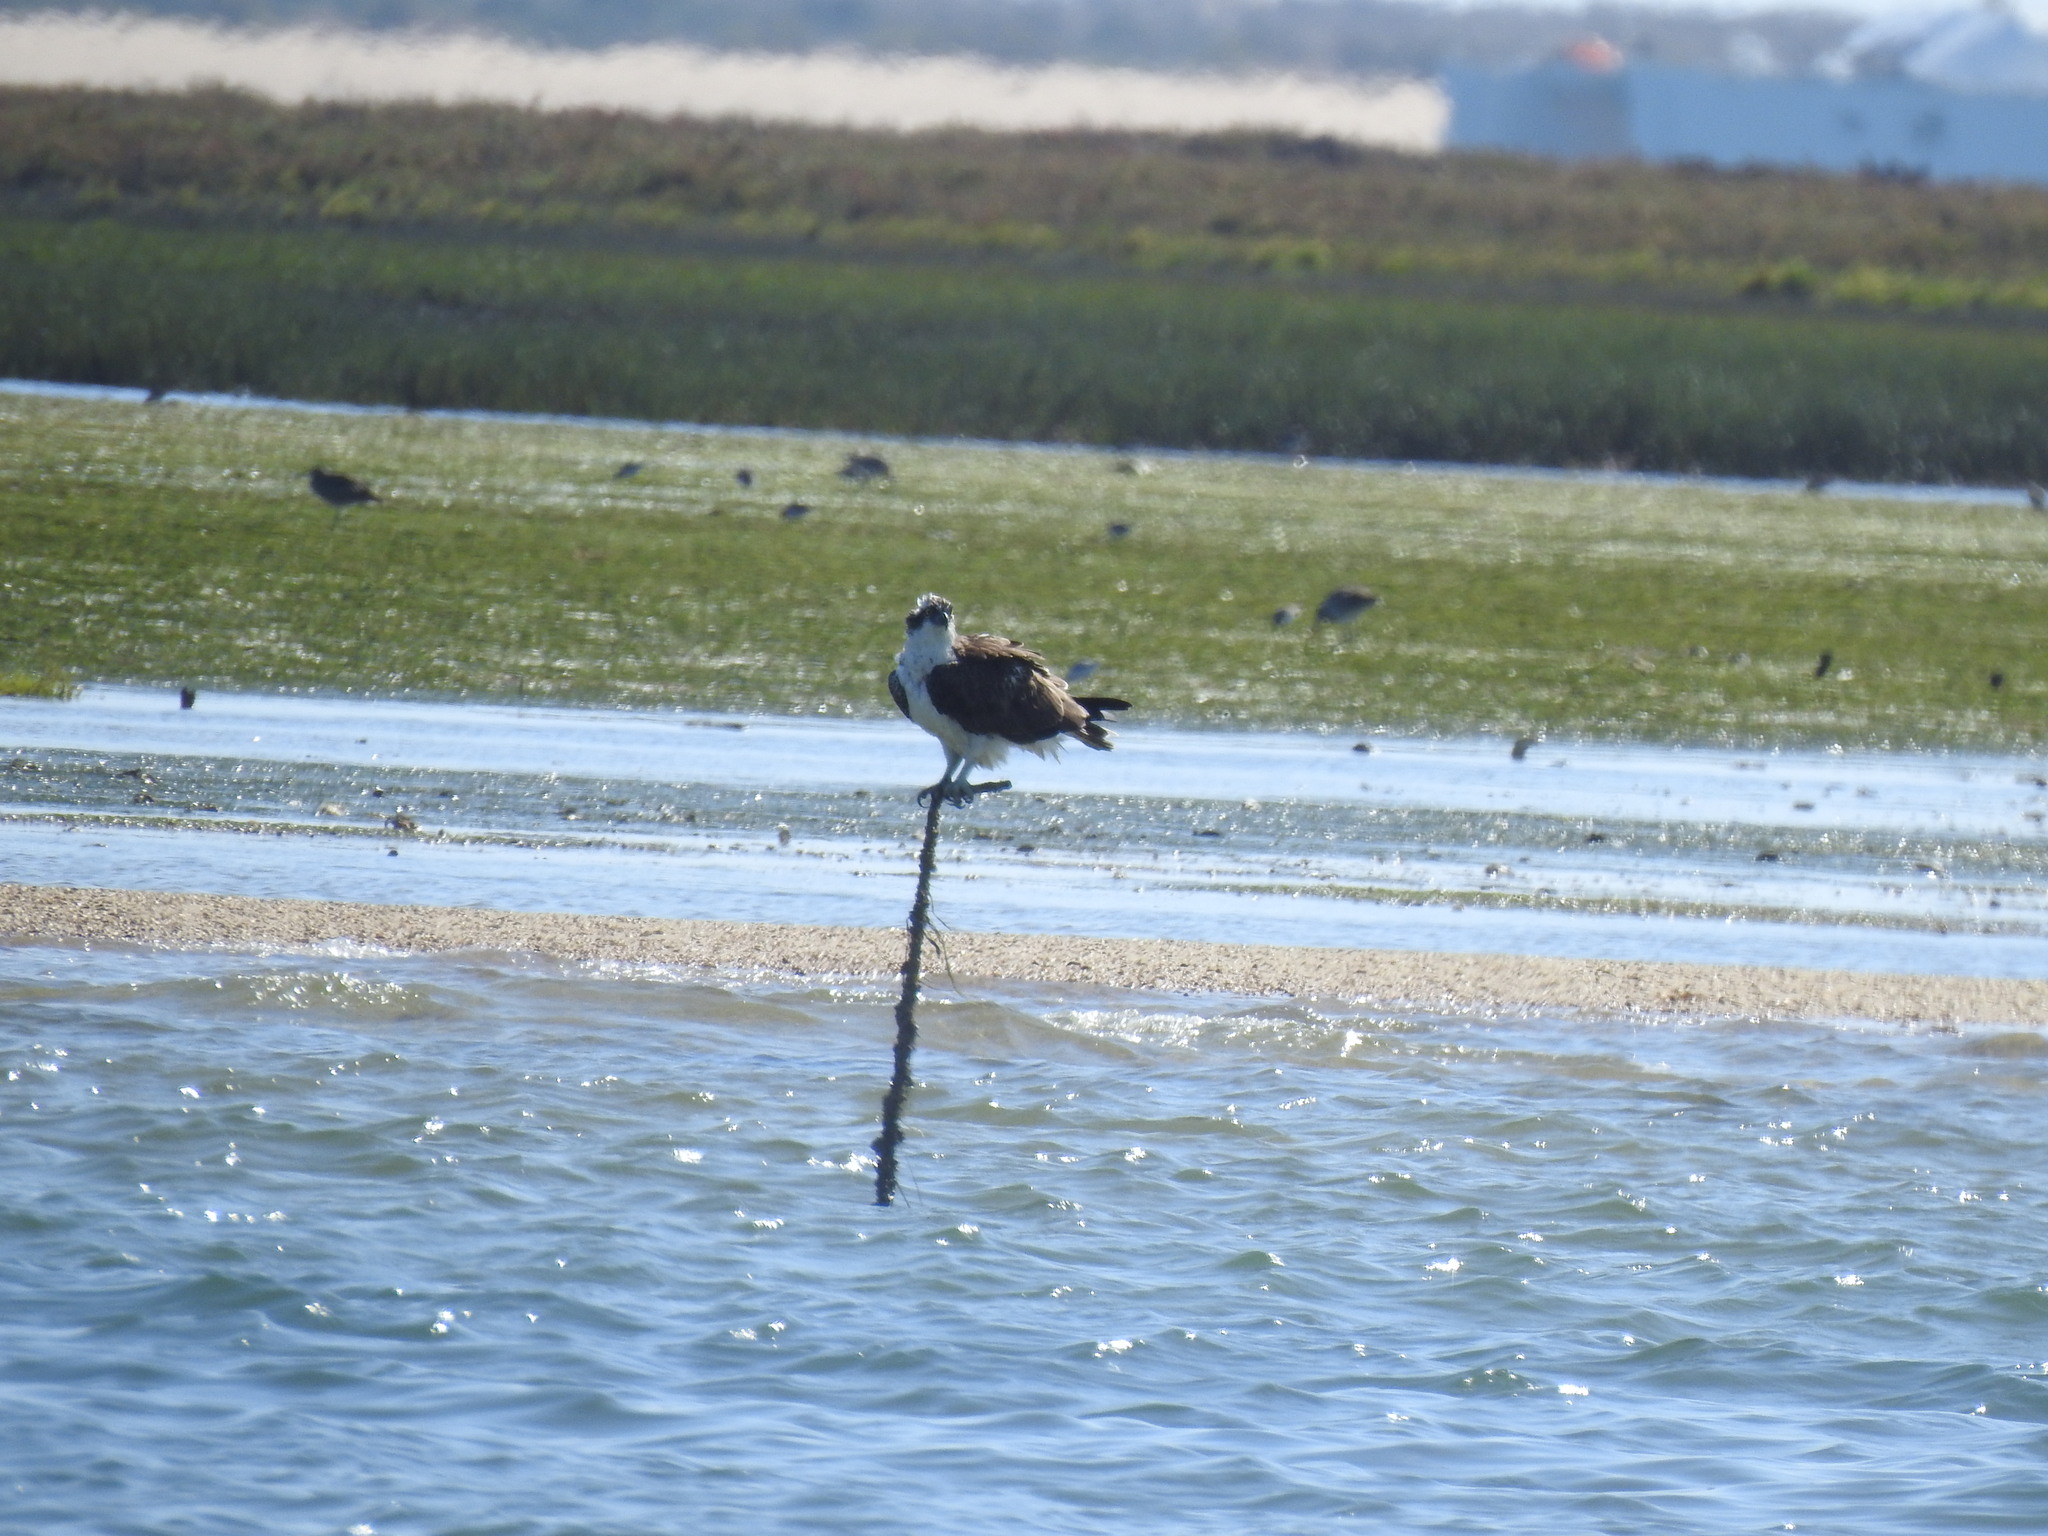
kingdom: Animalia
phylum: Chordata
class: Aves
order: Accipitriformes
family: Pandionidae
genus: Pandion
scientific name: Pandion haliaetus
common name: Osprey
